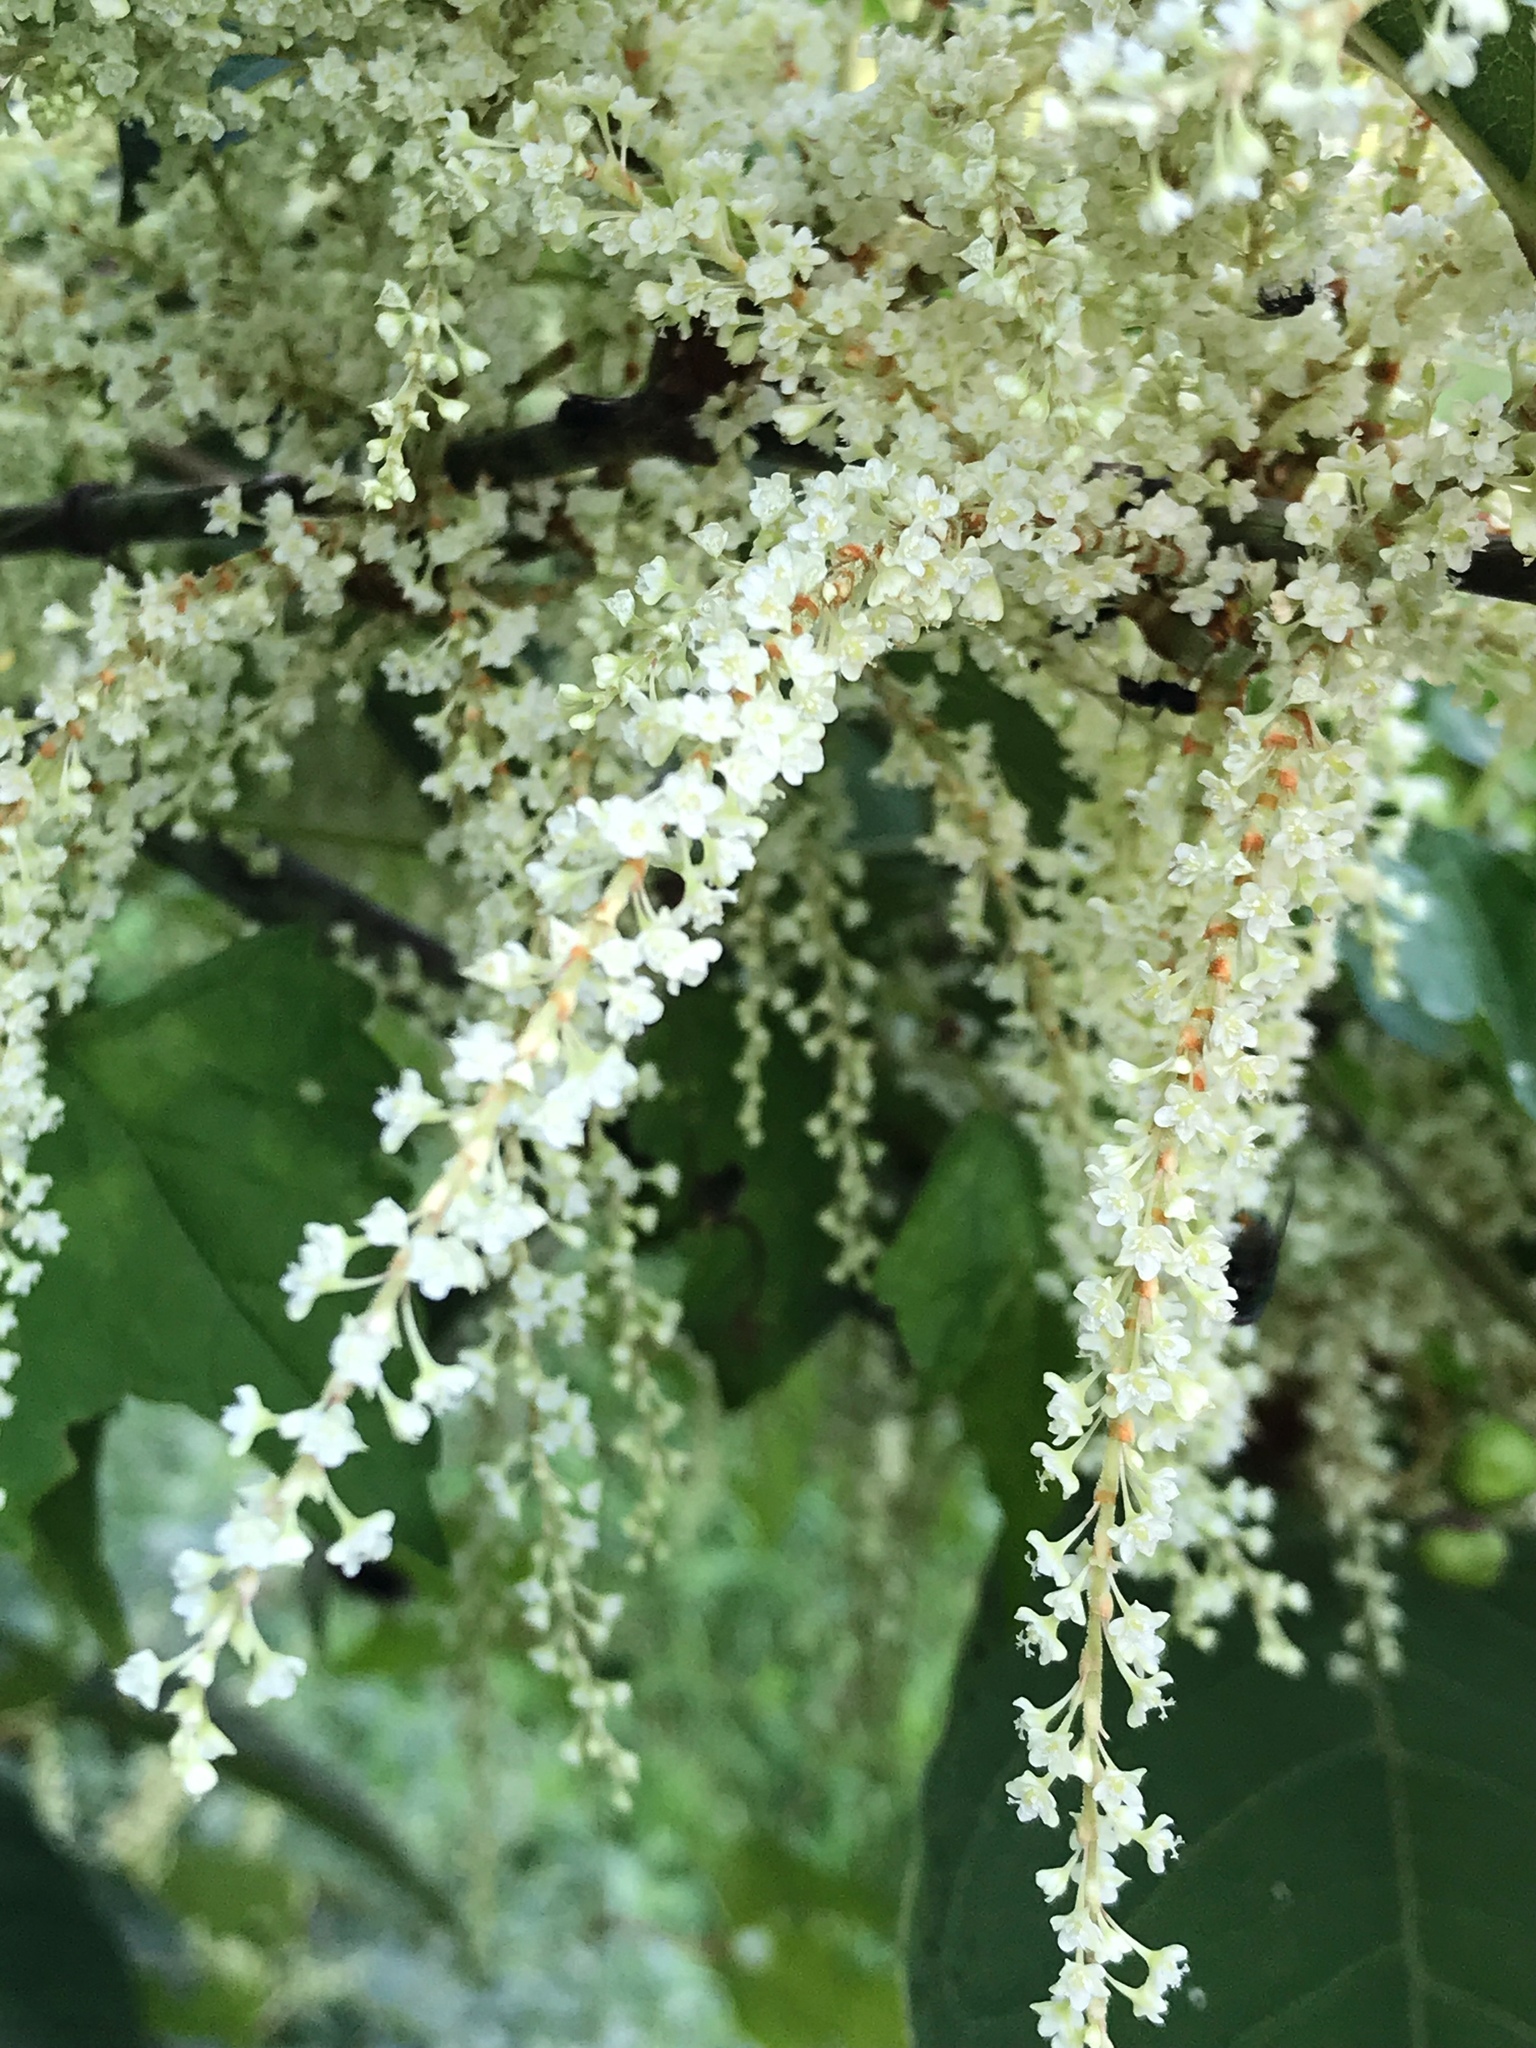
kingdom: Plantae
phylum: Tracheophyta
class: Magnoliopsida
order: Caryophyllales
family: Polygonaceae
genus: Reynoutria
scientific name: Reynoutria japonica
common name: Japanese knotweed
